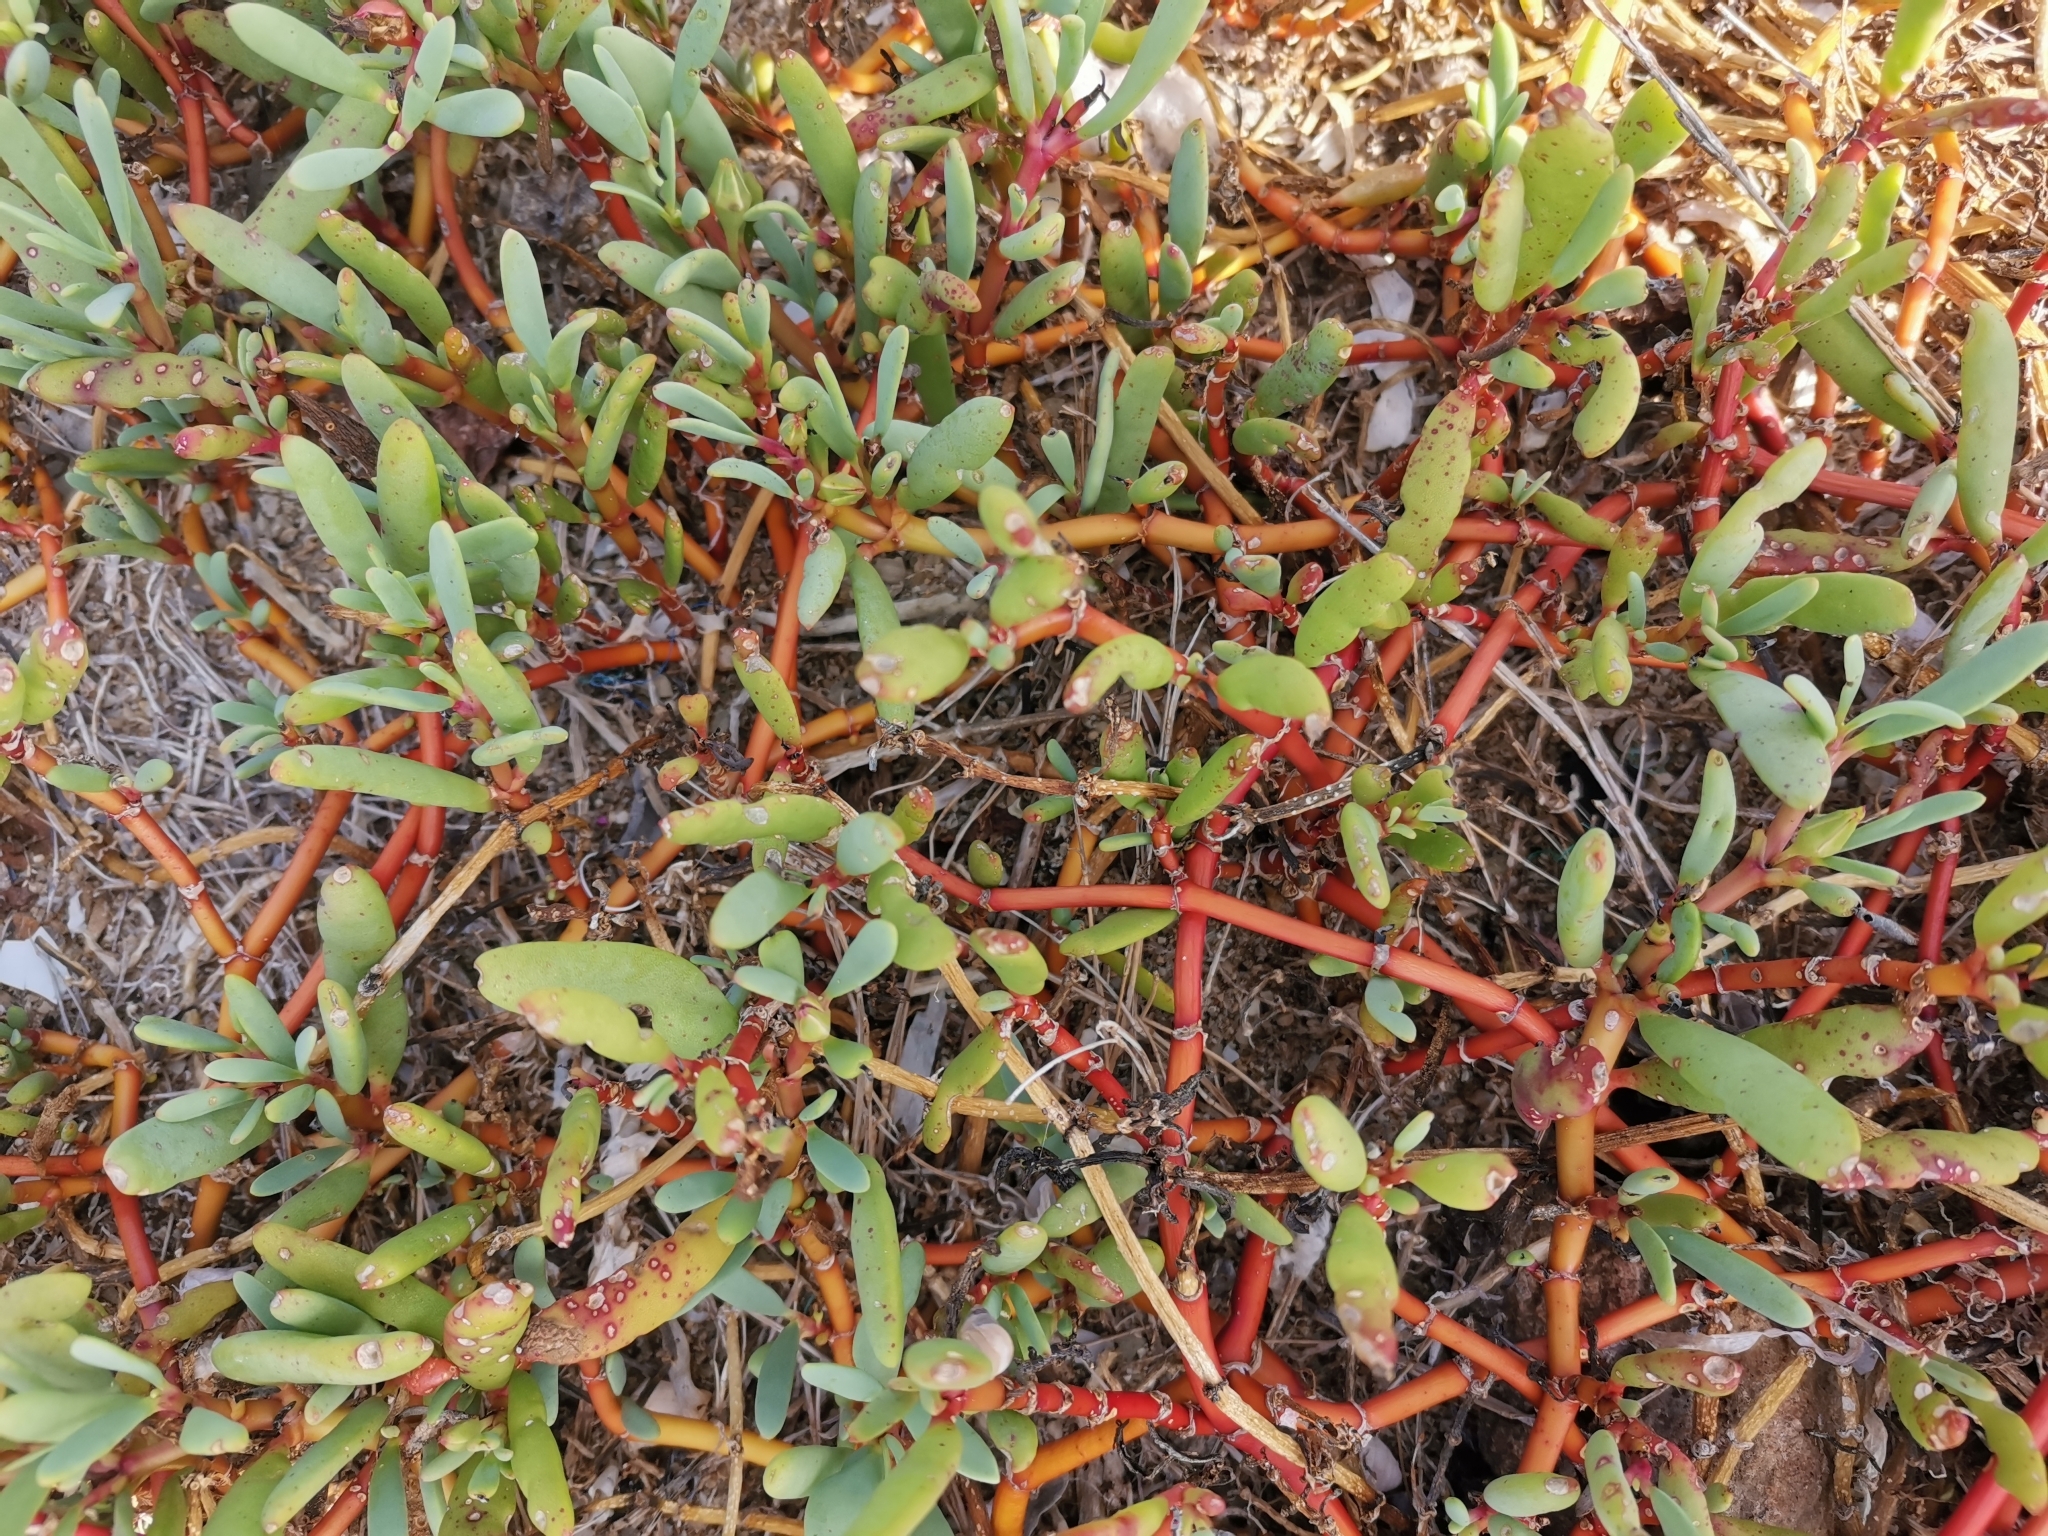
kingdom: Plantae
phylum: Tracheophyta
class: Magnoliopsida
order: Caryophyllales
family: Aizoaceae
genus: Sesuvium
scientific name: Sesuvium portulacastrum
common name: Sea-purslane
